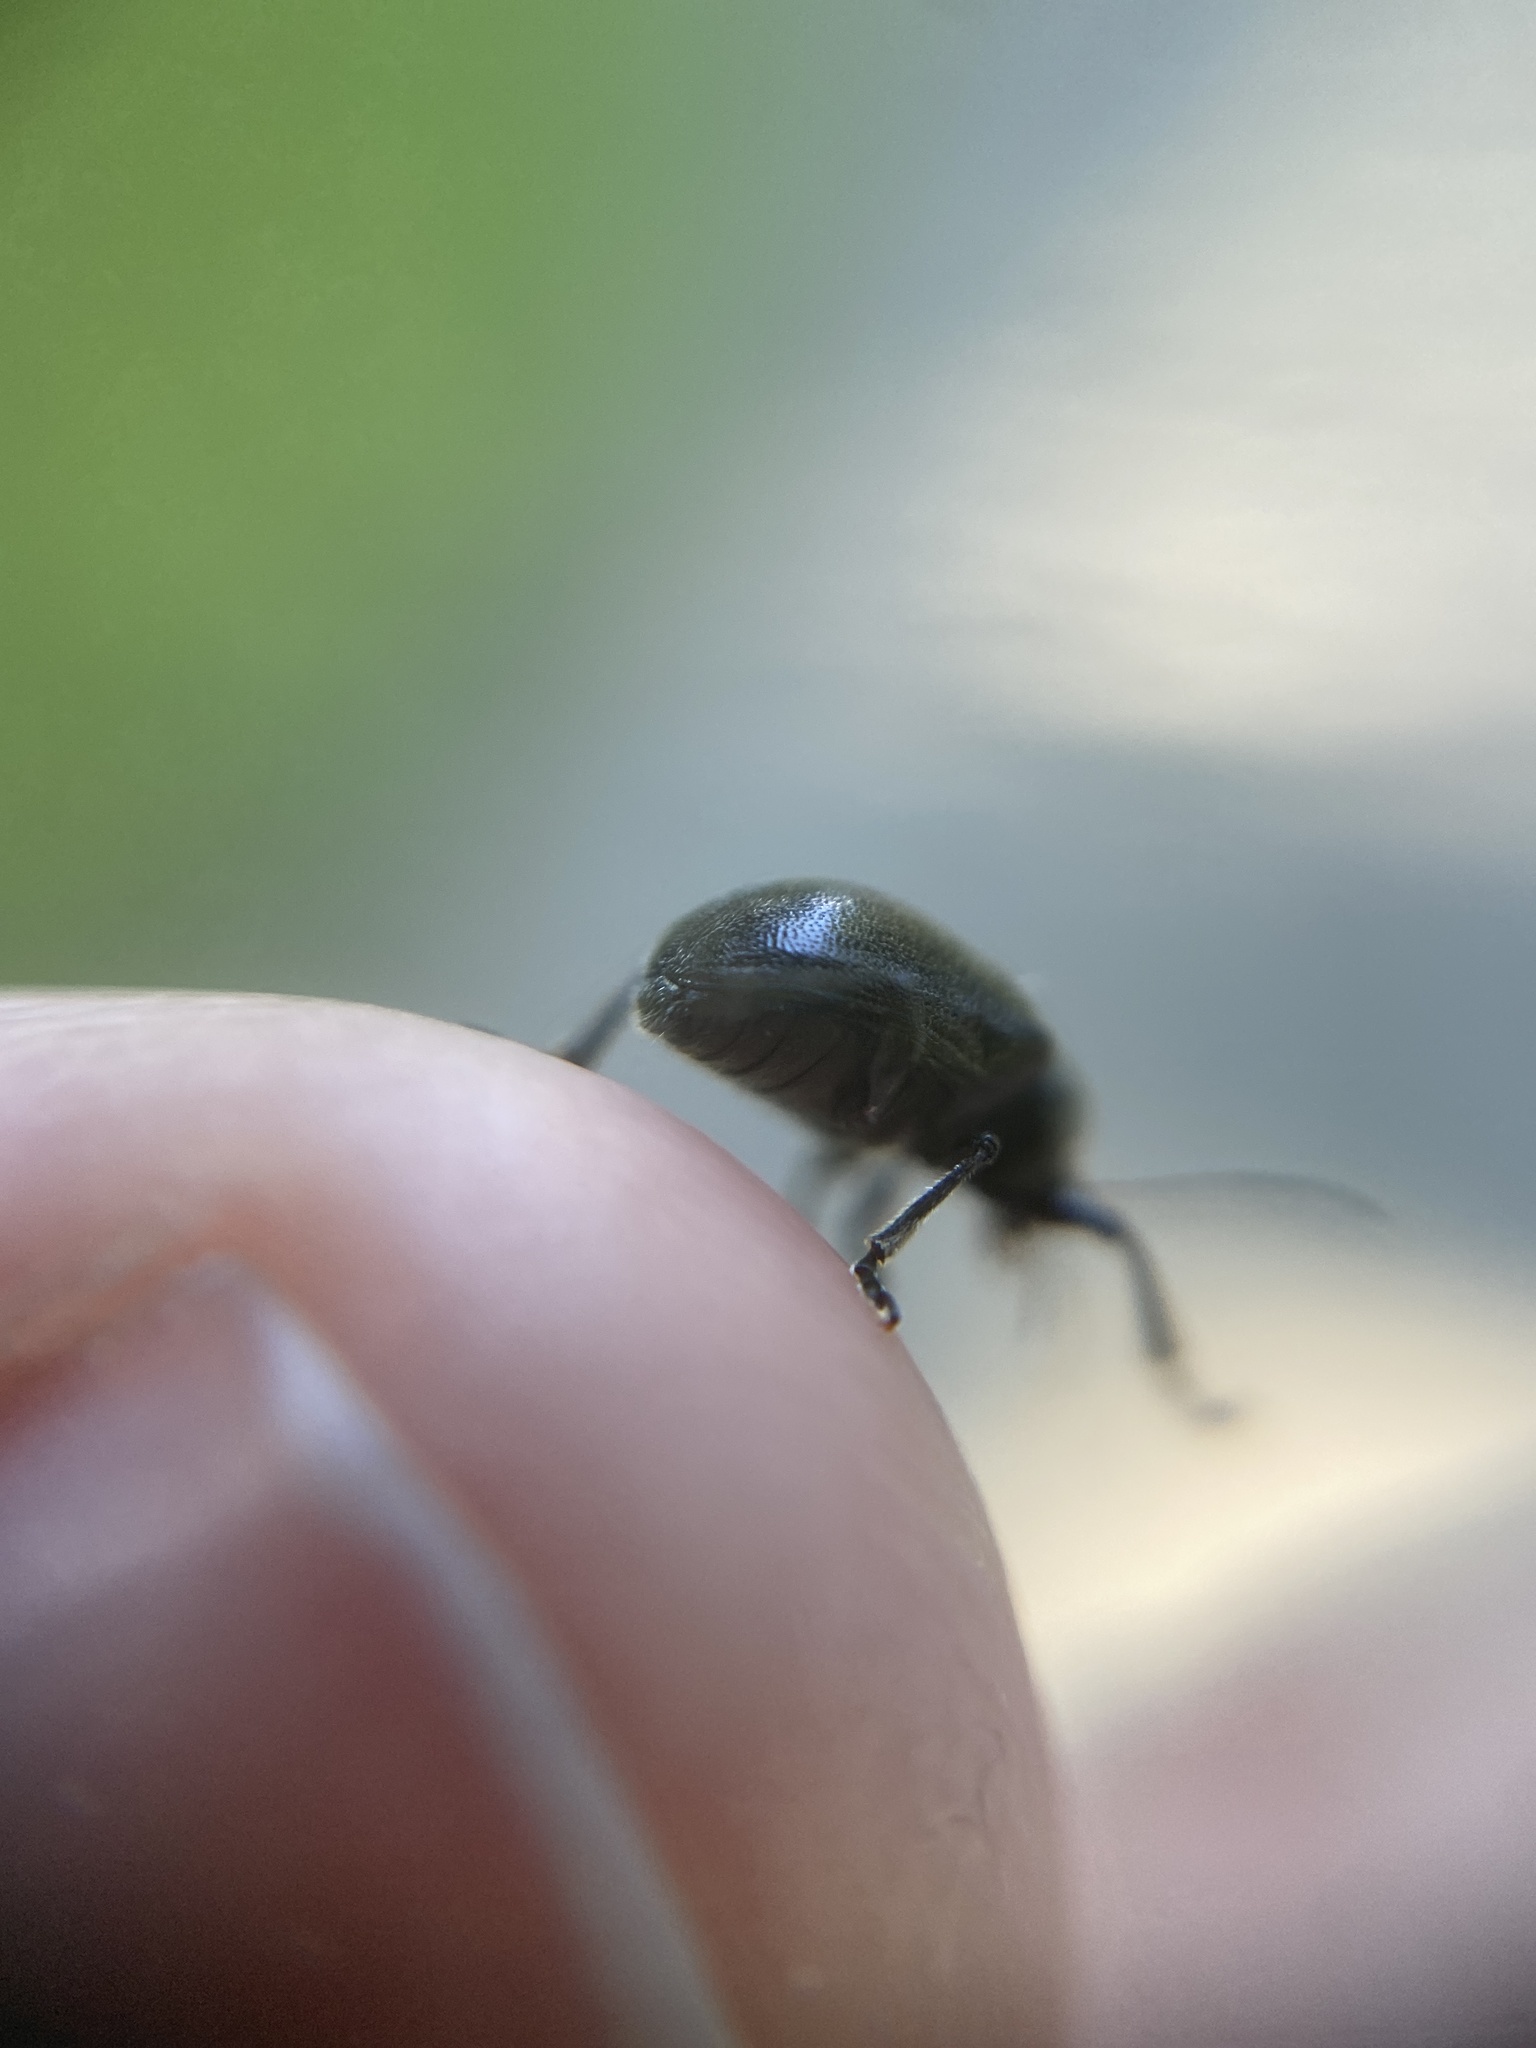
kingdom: Animalia
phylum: Arthropoda
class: Insecta
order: Coleoptera
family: Chrysomelidae
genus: Bromius
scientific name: Bromius obscurus
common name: Western grape rootworm
